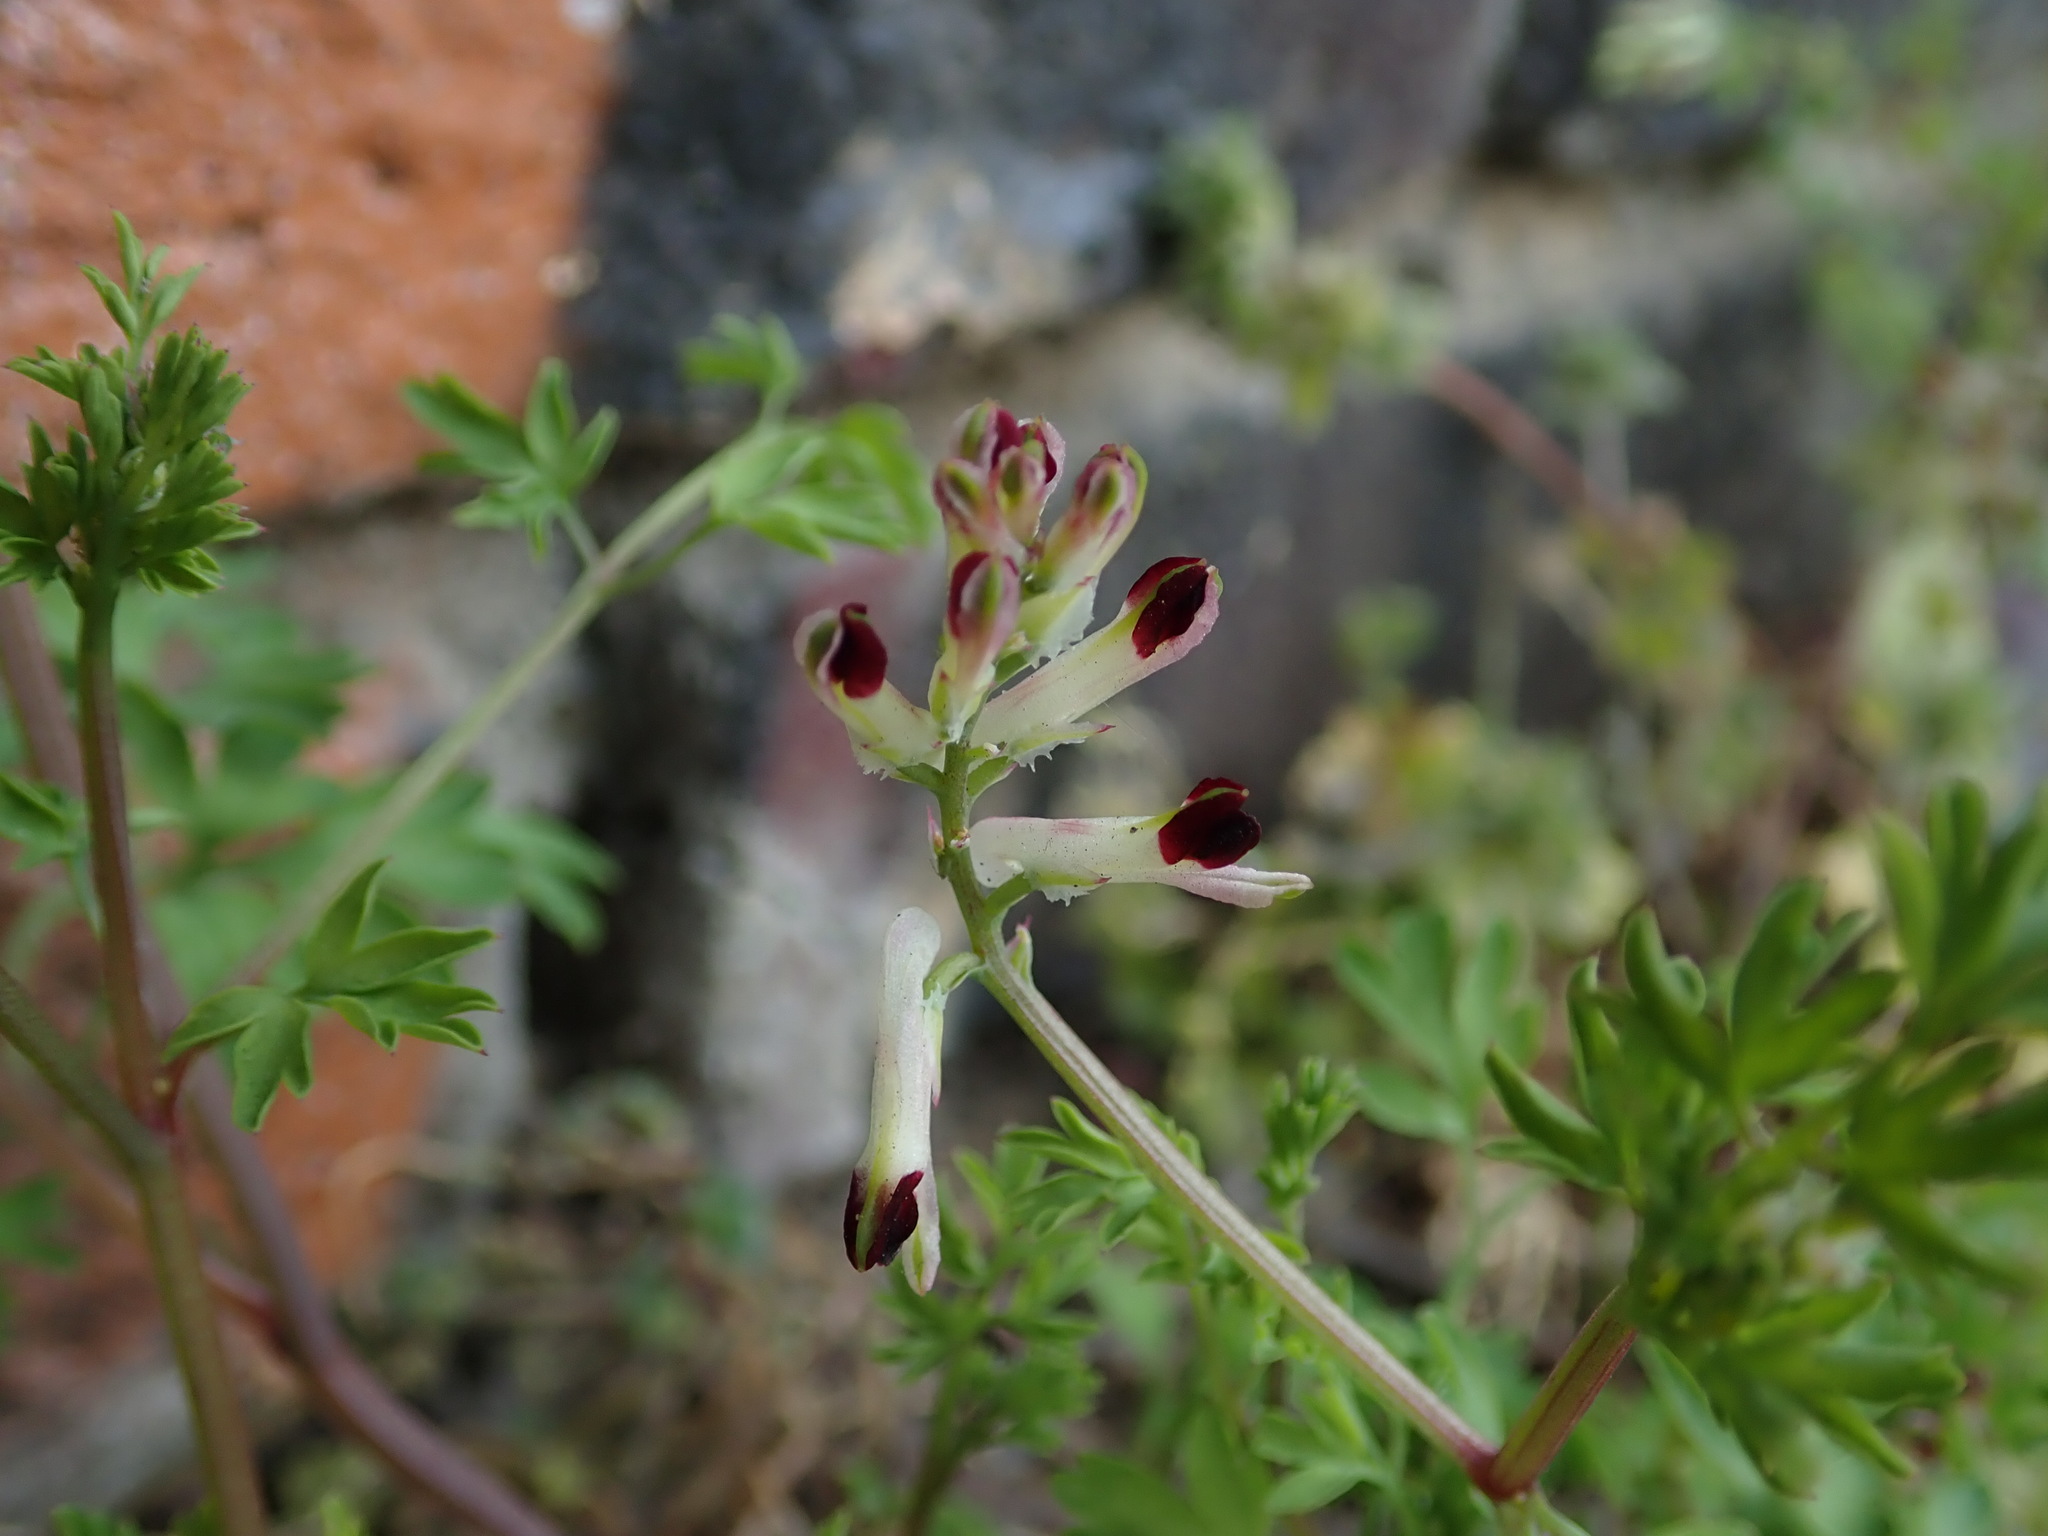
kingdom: Plantae
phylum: Tracheophyta
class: Magnoliopsida
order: Ranunculales
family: Papaveraceae
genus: Fumaria
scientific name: Fumaria muralis
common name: Common ramping-fumitory
